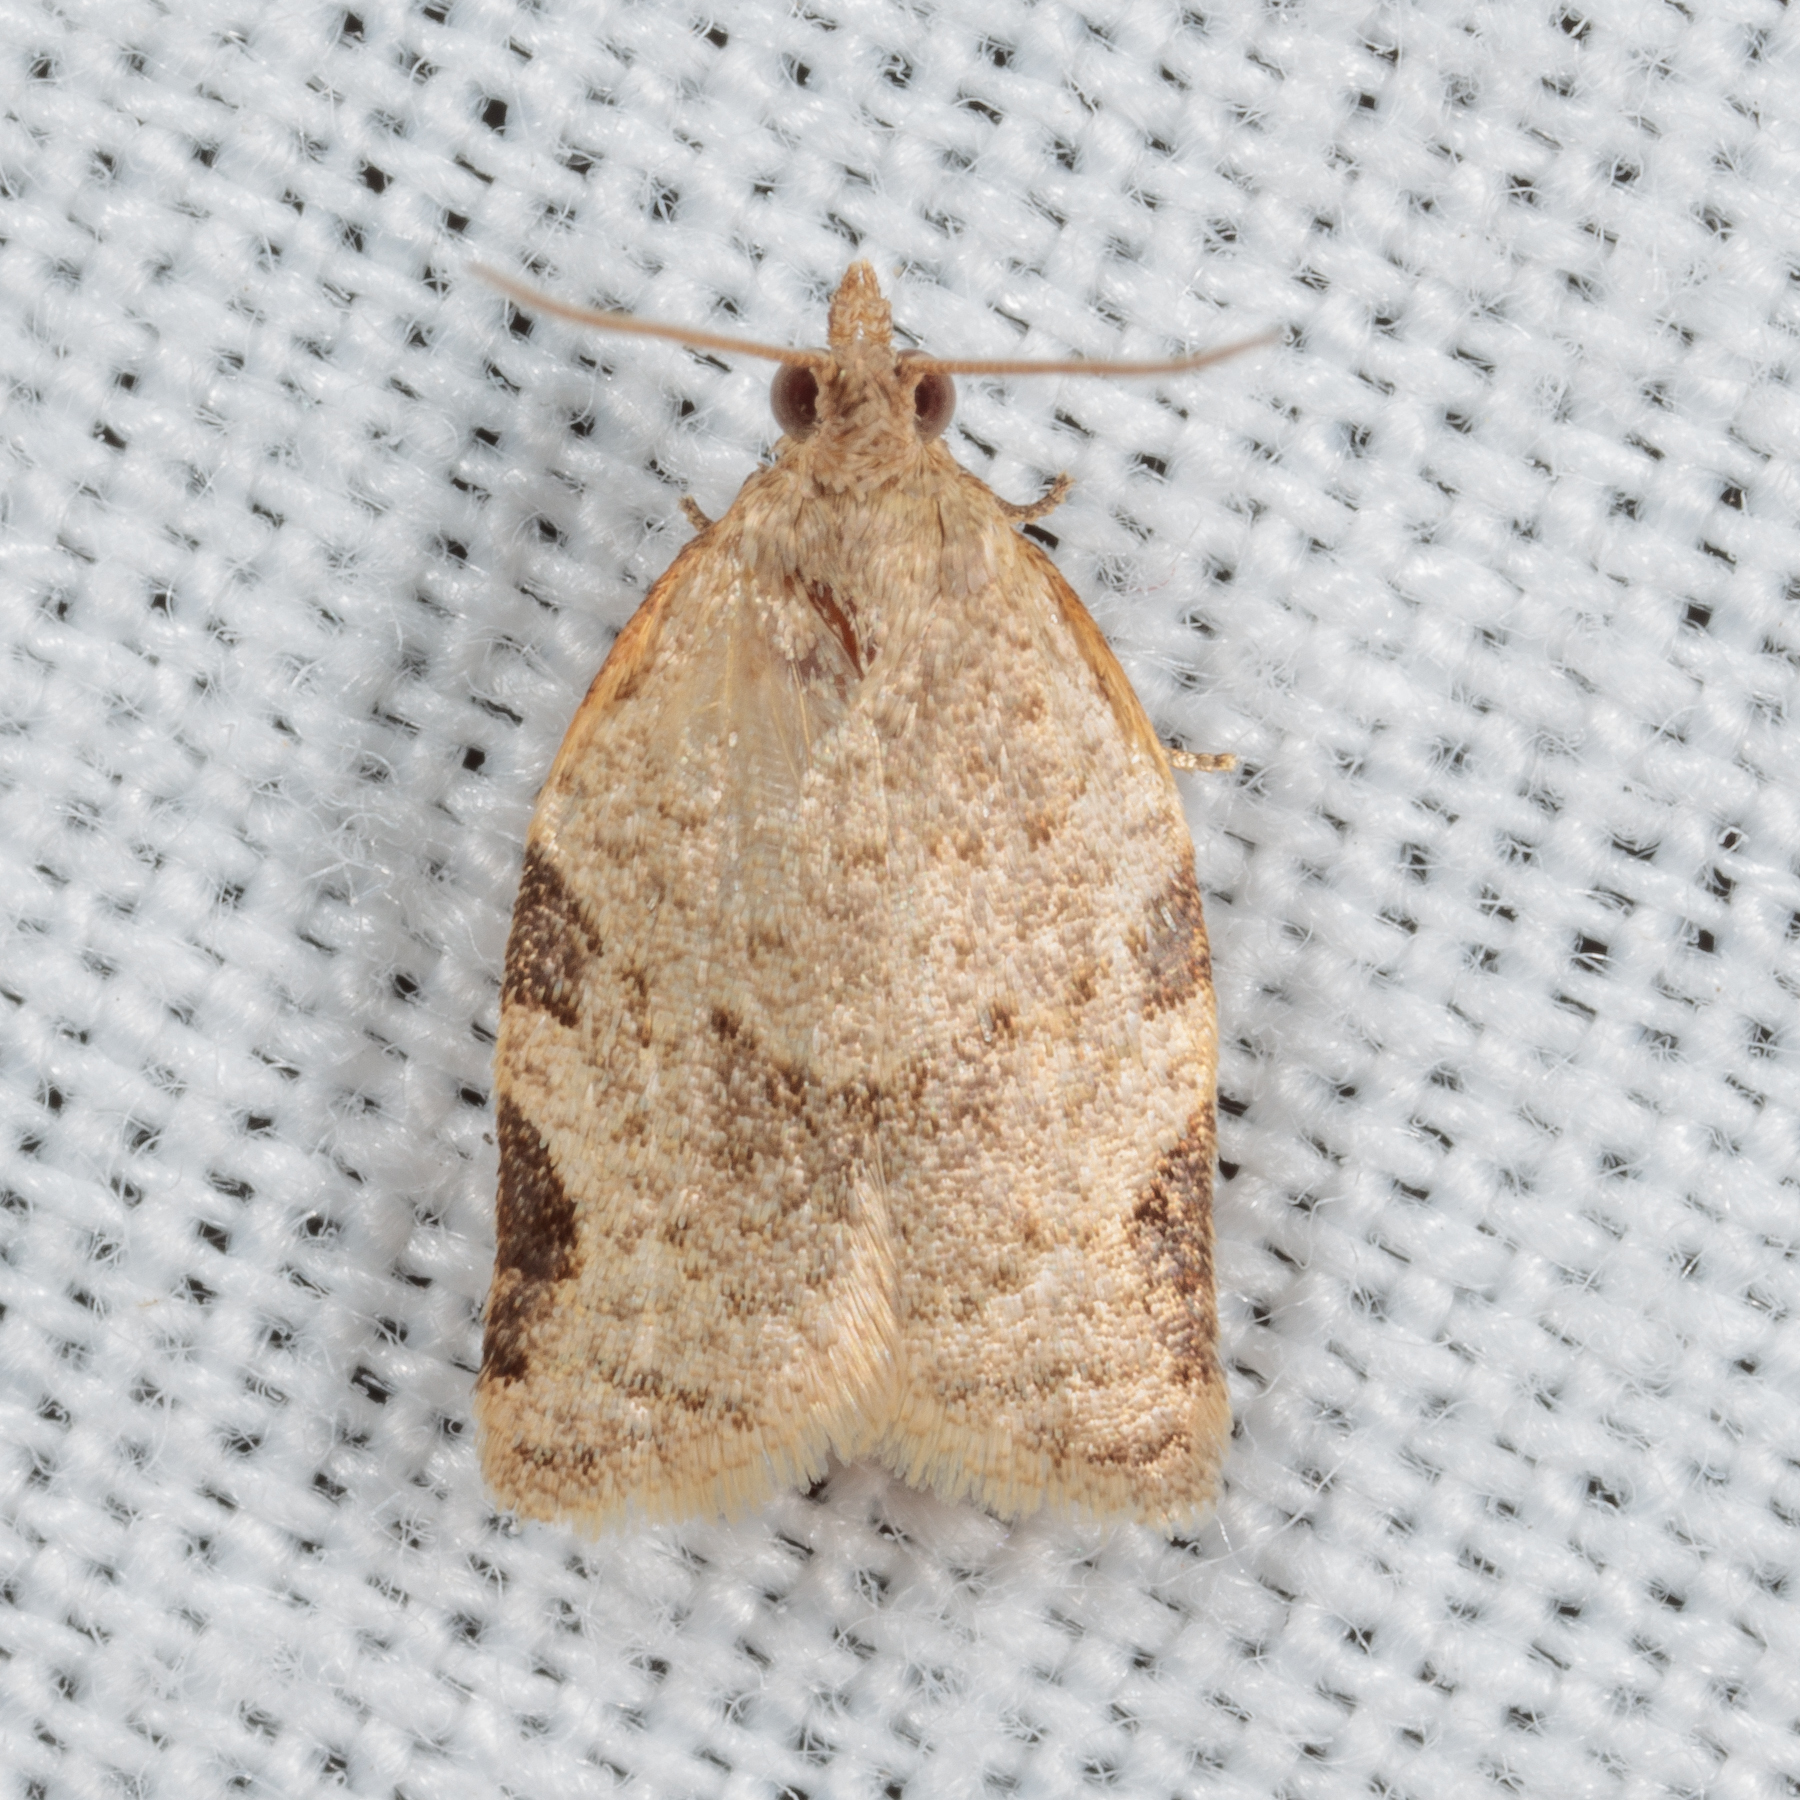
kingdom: Animalia
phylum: Arthropoda
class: Insecta
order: Lepidoptera
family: Tortricidae
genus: Clepsis
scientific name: Clepsis virescana
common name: Greenish apple moth
